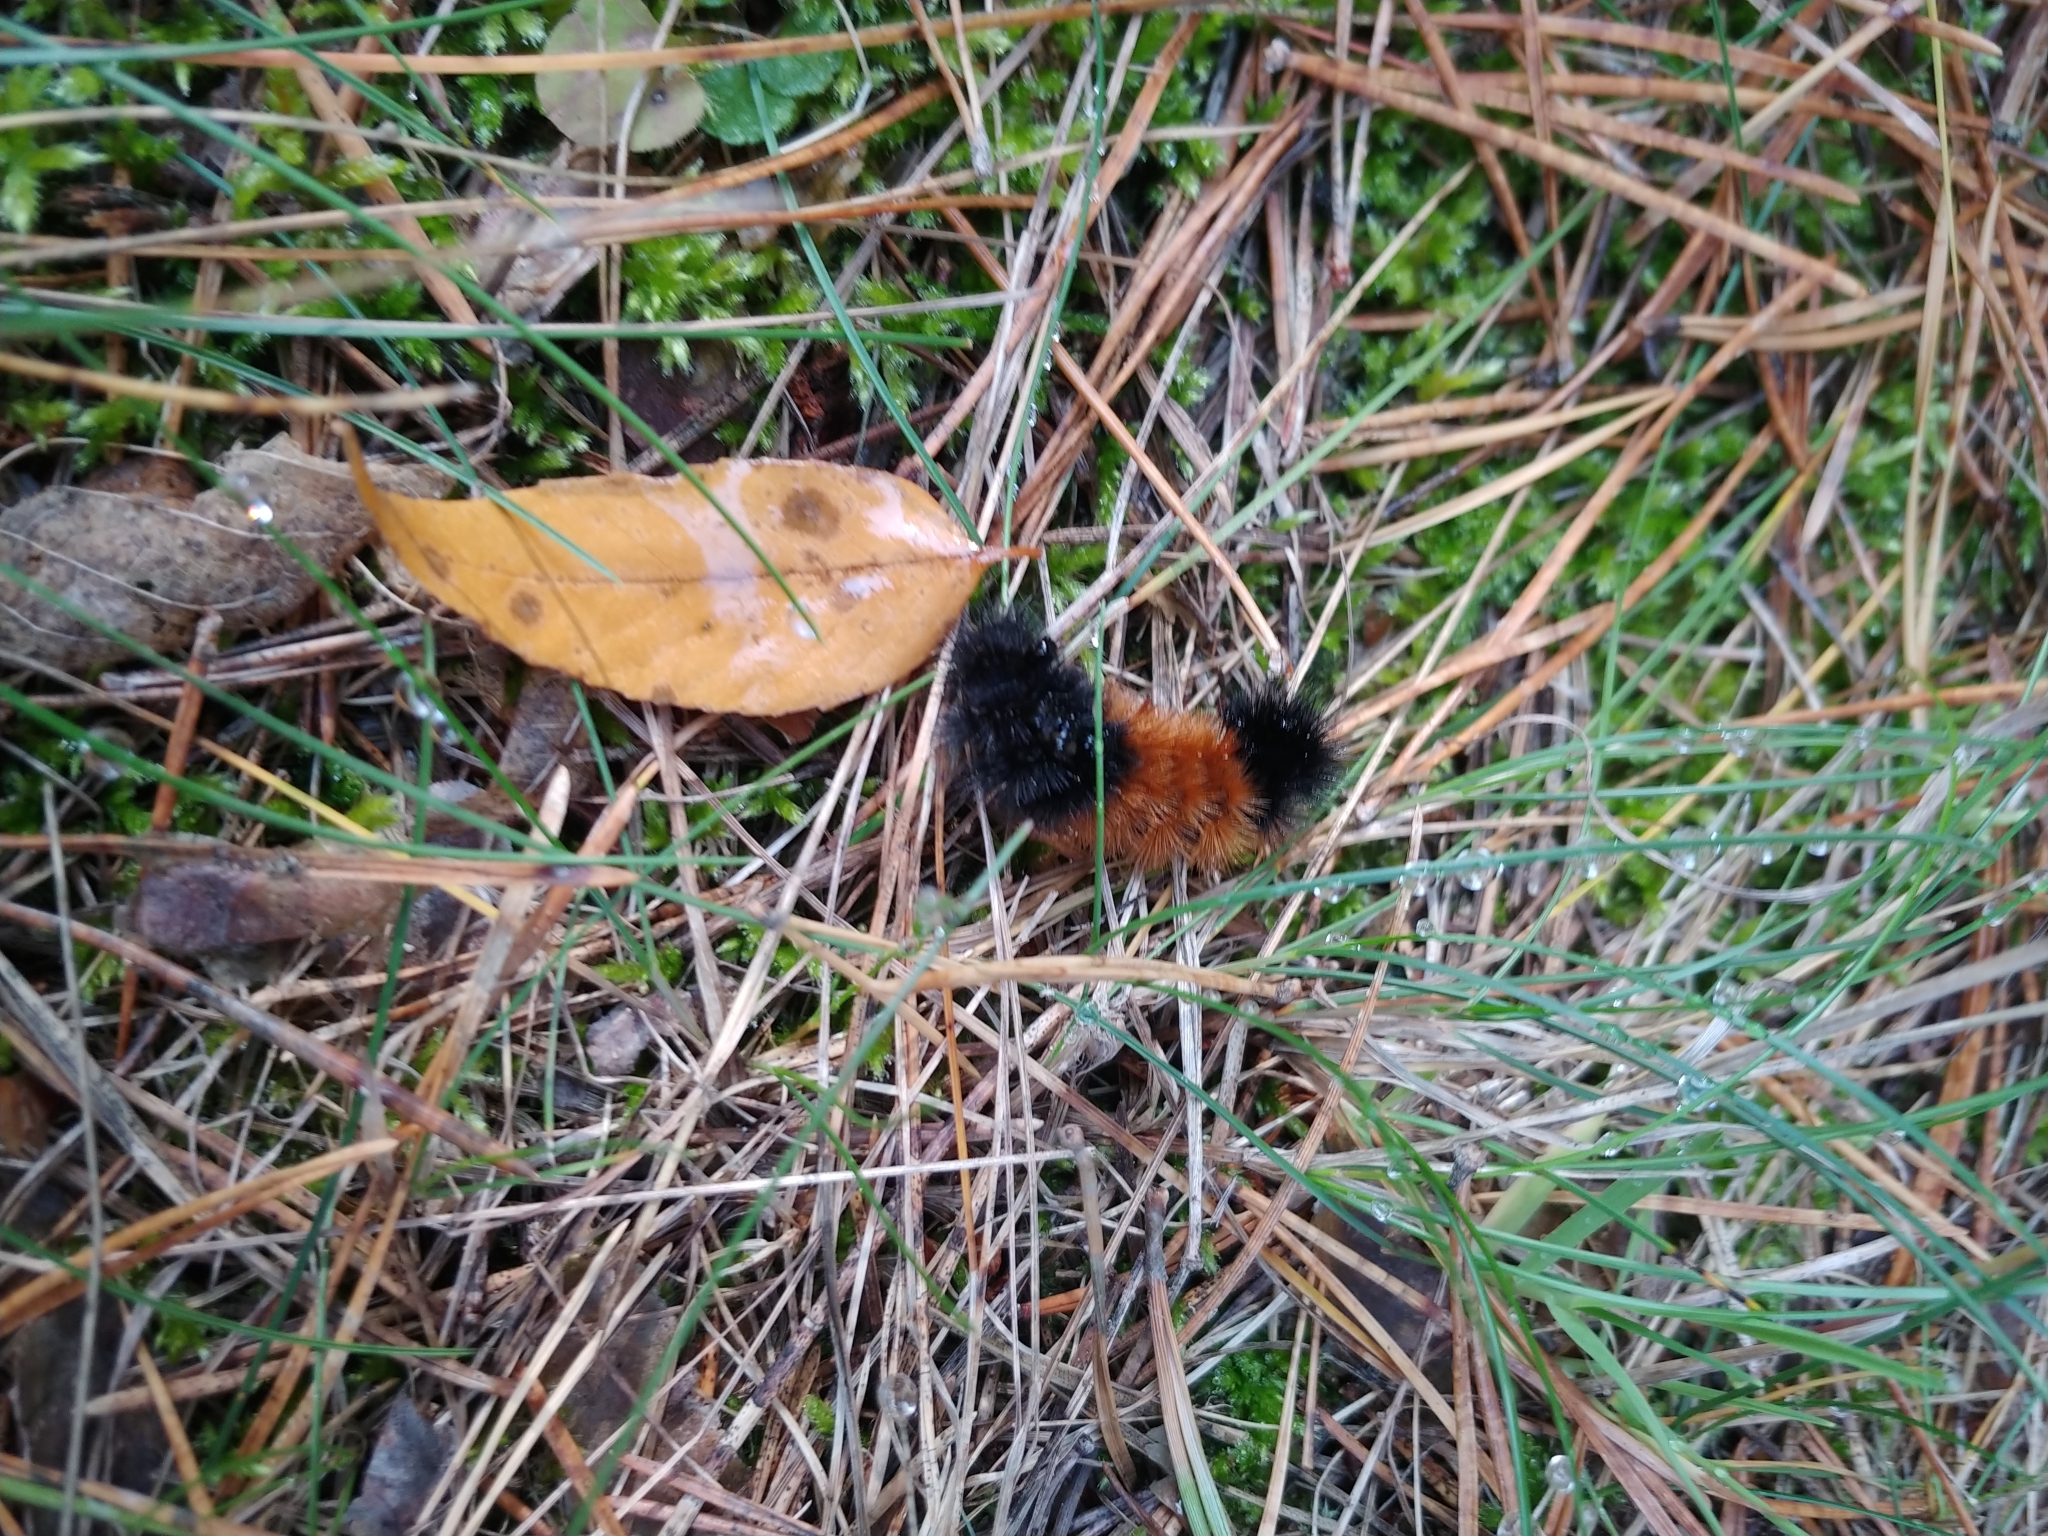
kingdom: Animalia
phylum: Arthropoda
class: Insecta
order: Lepidoptera
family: Erebidae
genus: Pyrrharctia
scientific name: Pyrrharctia isabella
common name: Isabella tiger moth
